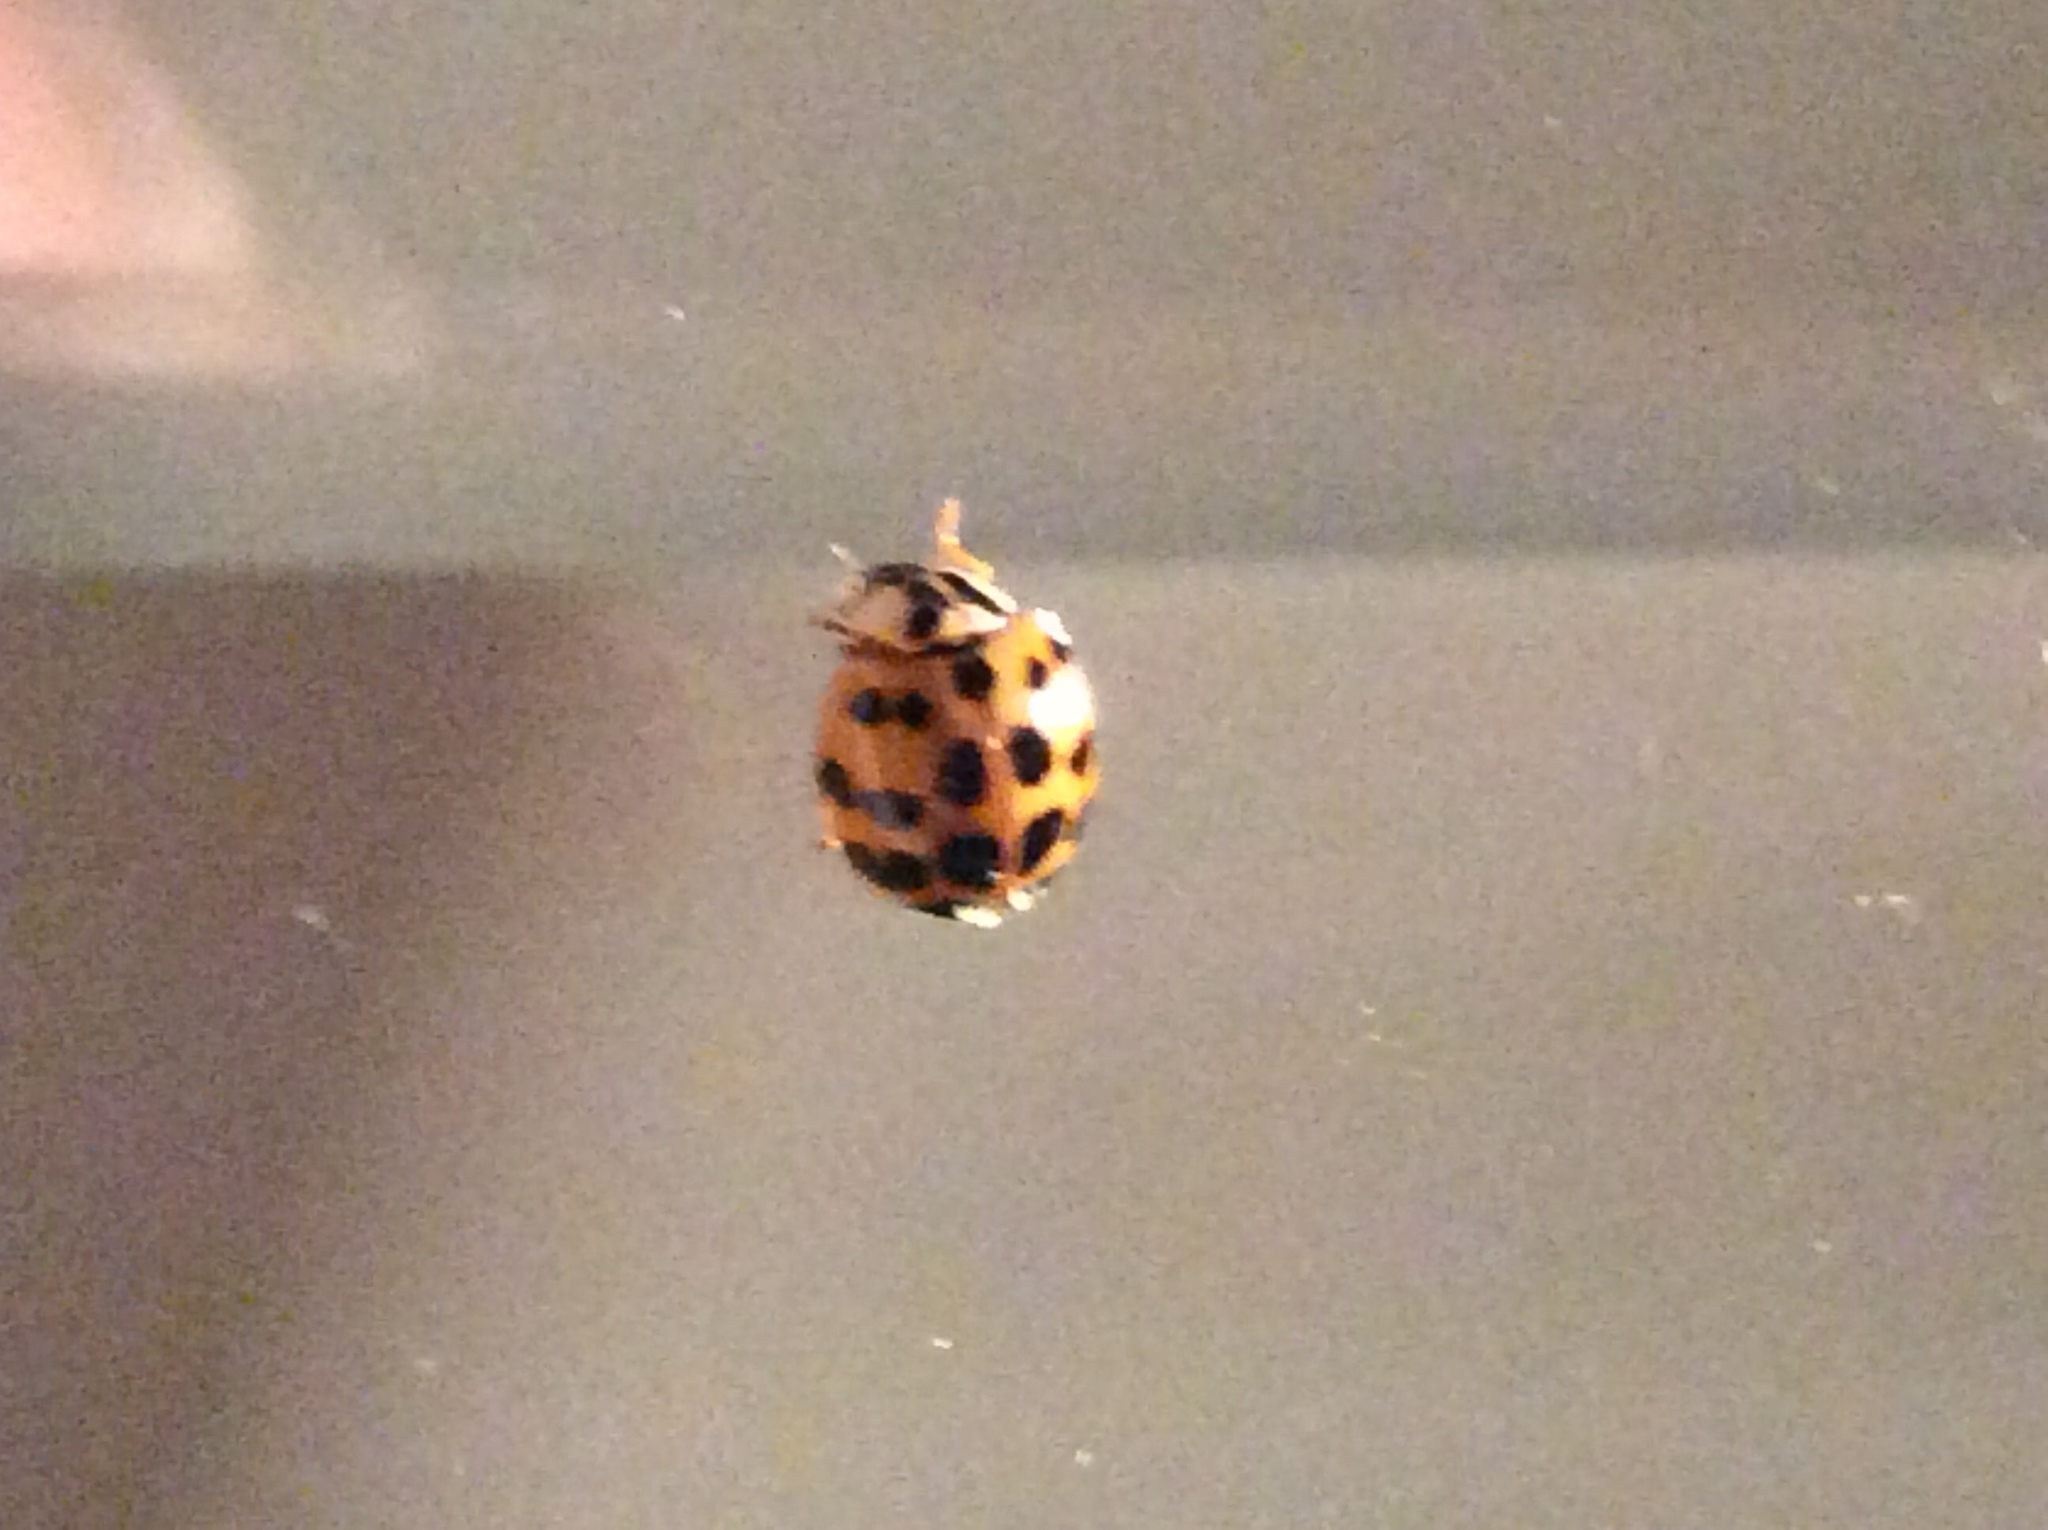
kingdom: Animalia
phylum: Arthropoda
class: Insecta
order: Coleoptera
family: Coccinellidae
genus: Harmonia
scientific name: Harmonia axyridis
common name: Harlequin ladybird
